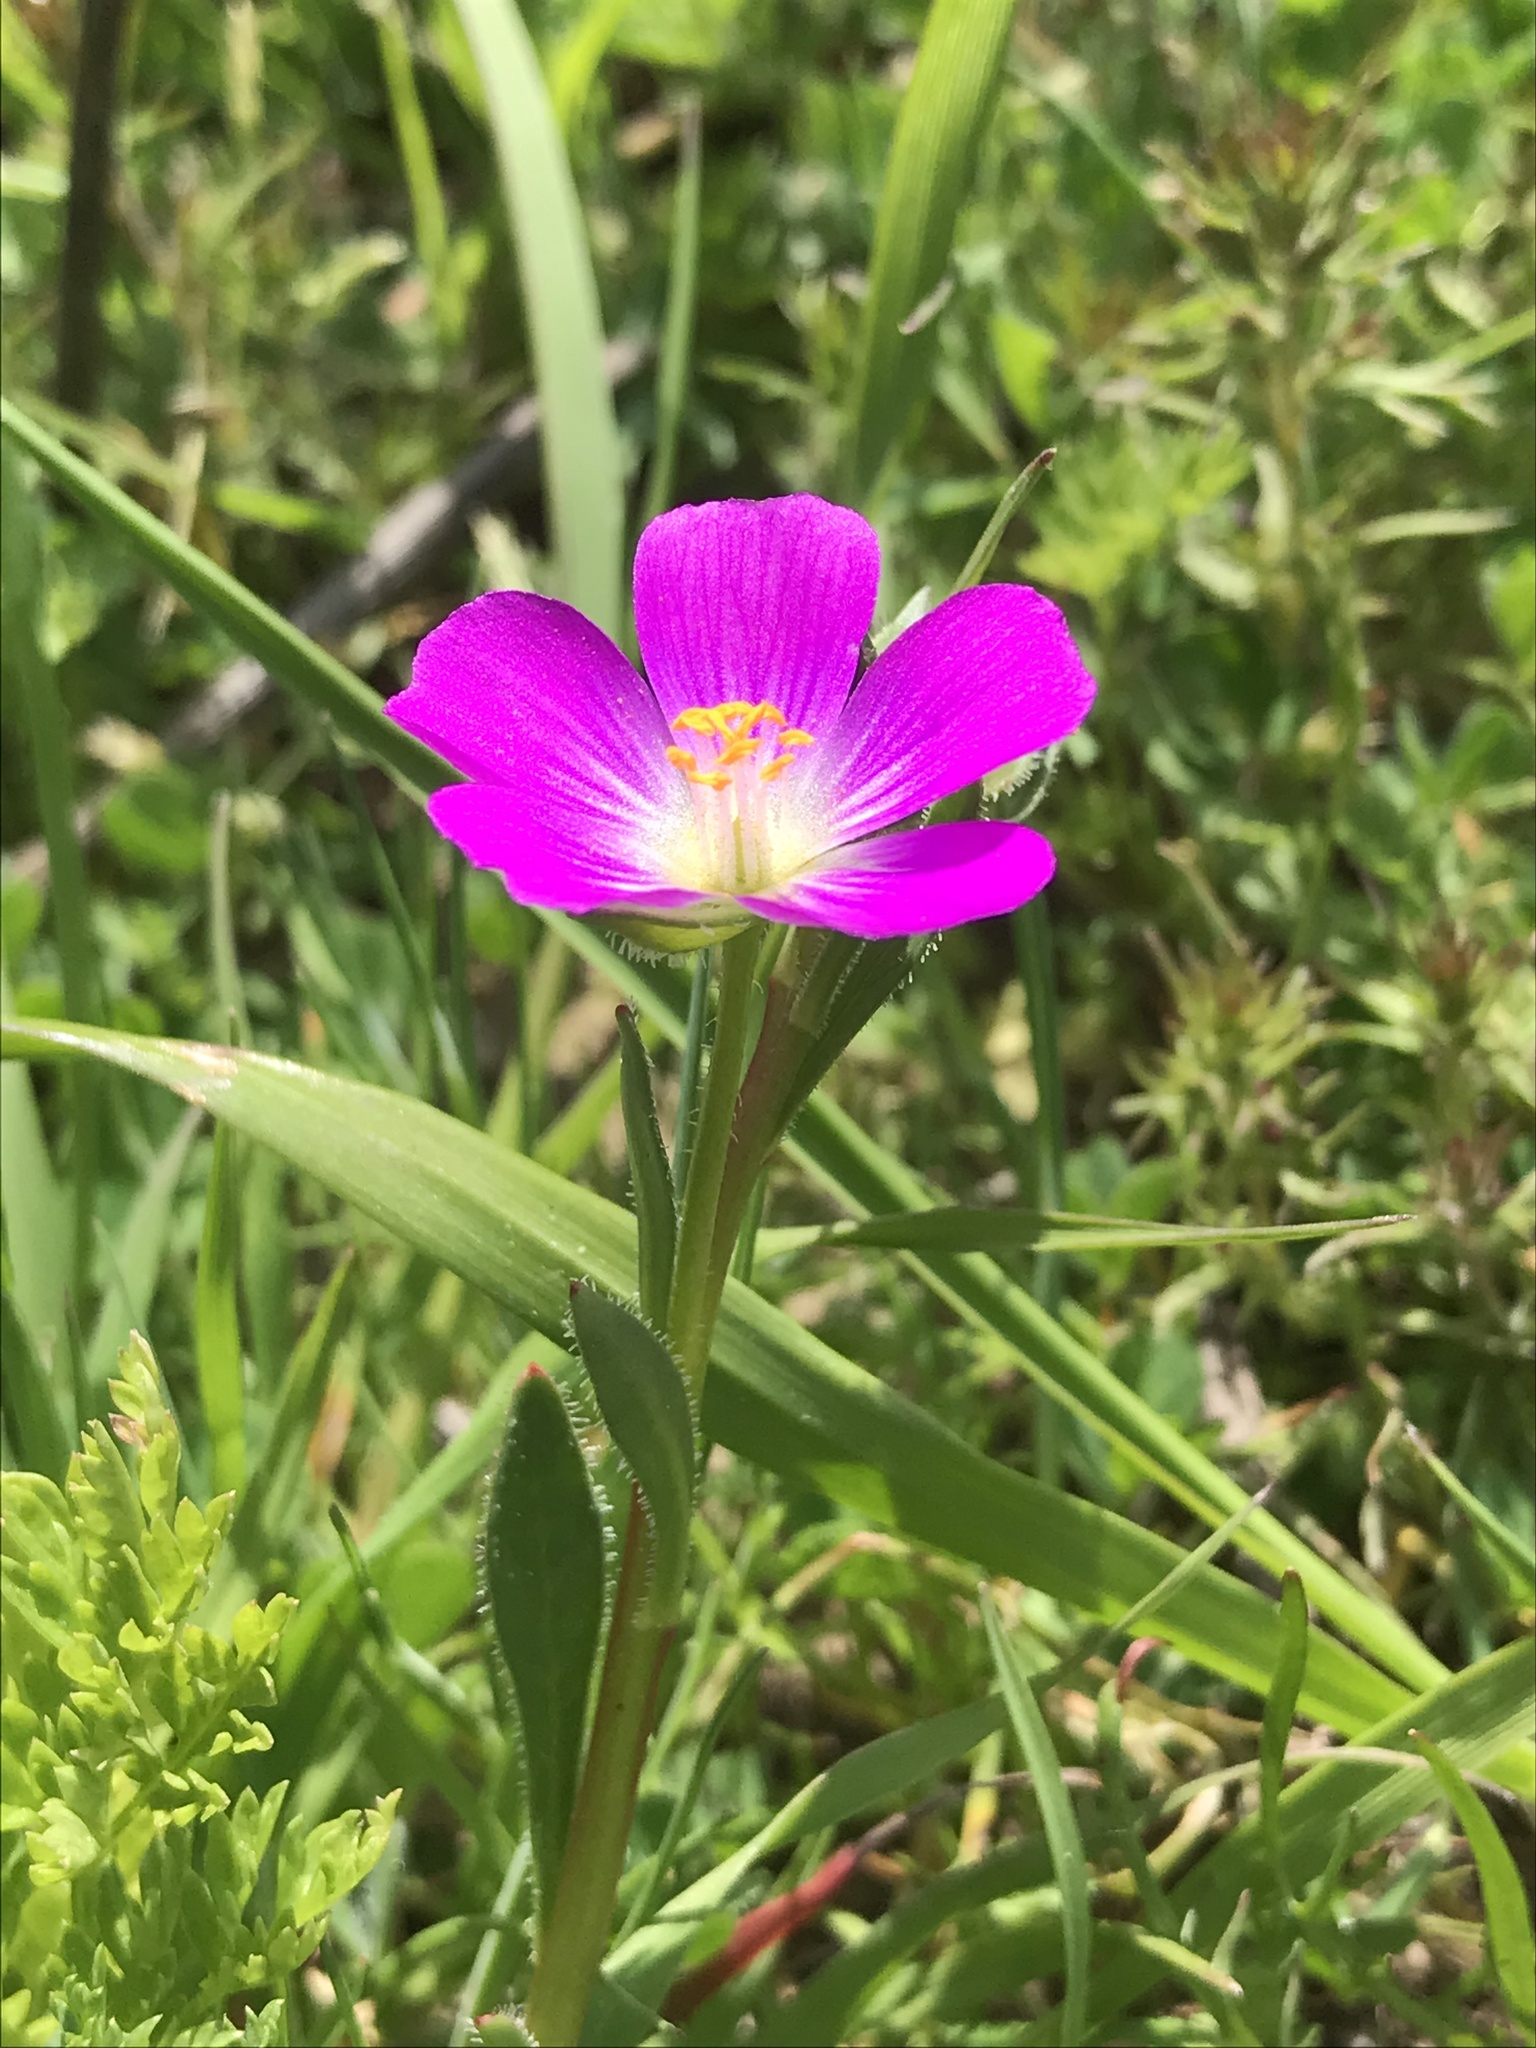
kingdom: Plantae
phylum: Tracheophyta
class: Magnoliopsida
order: Caryophyllales
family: Montiaceae
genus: Calandrinia
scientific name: Calandrinia menziesii
